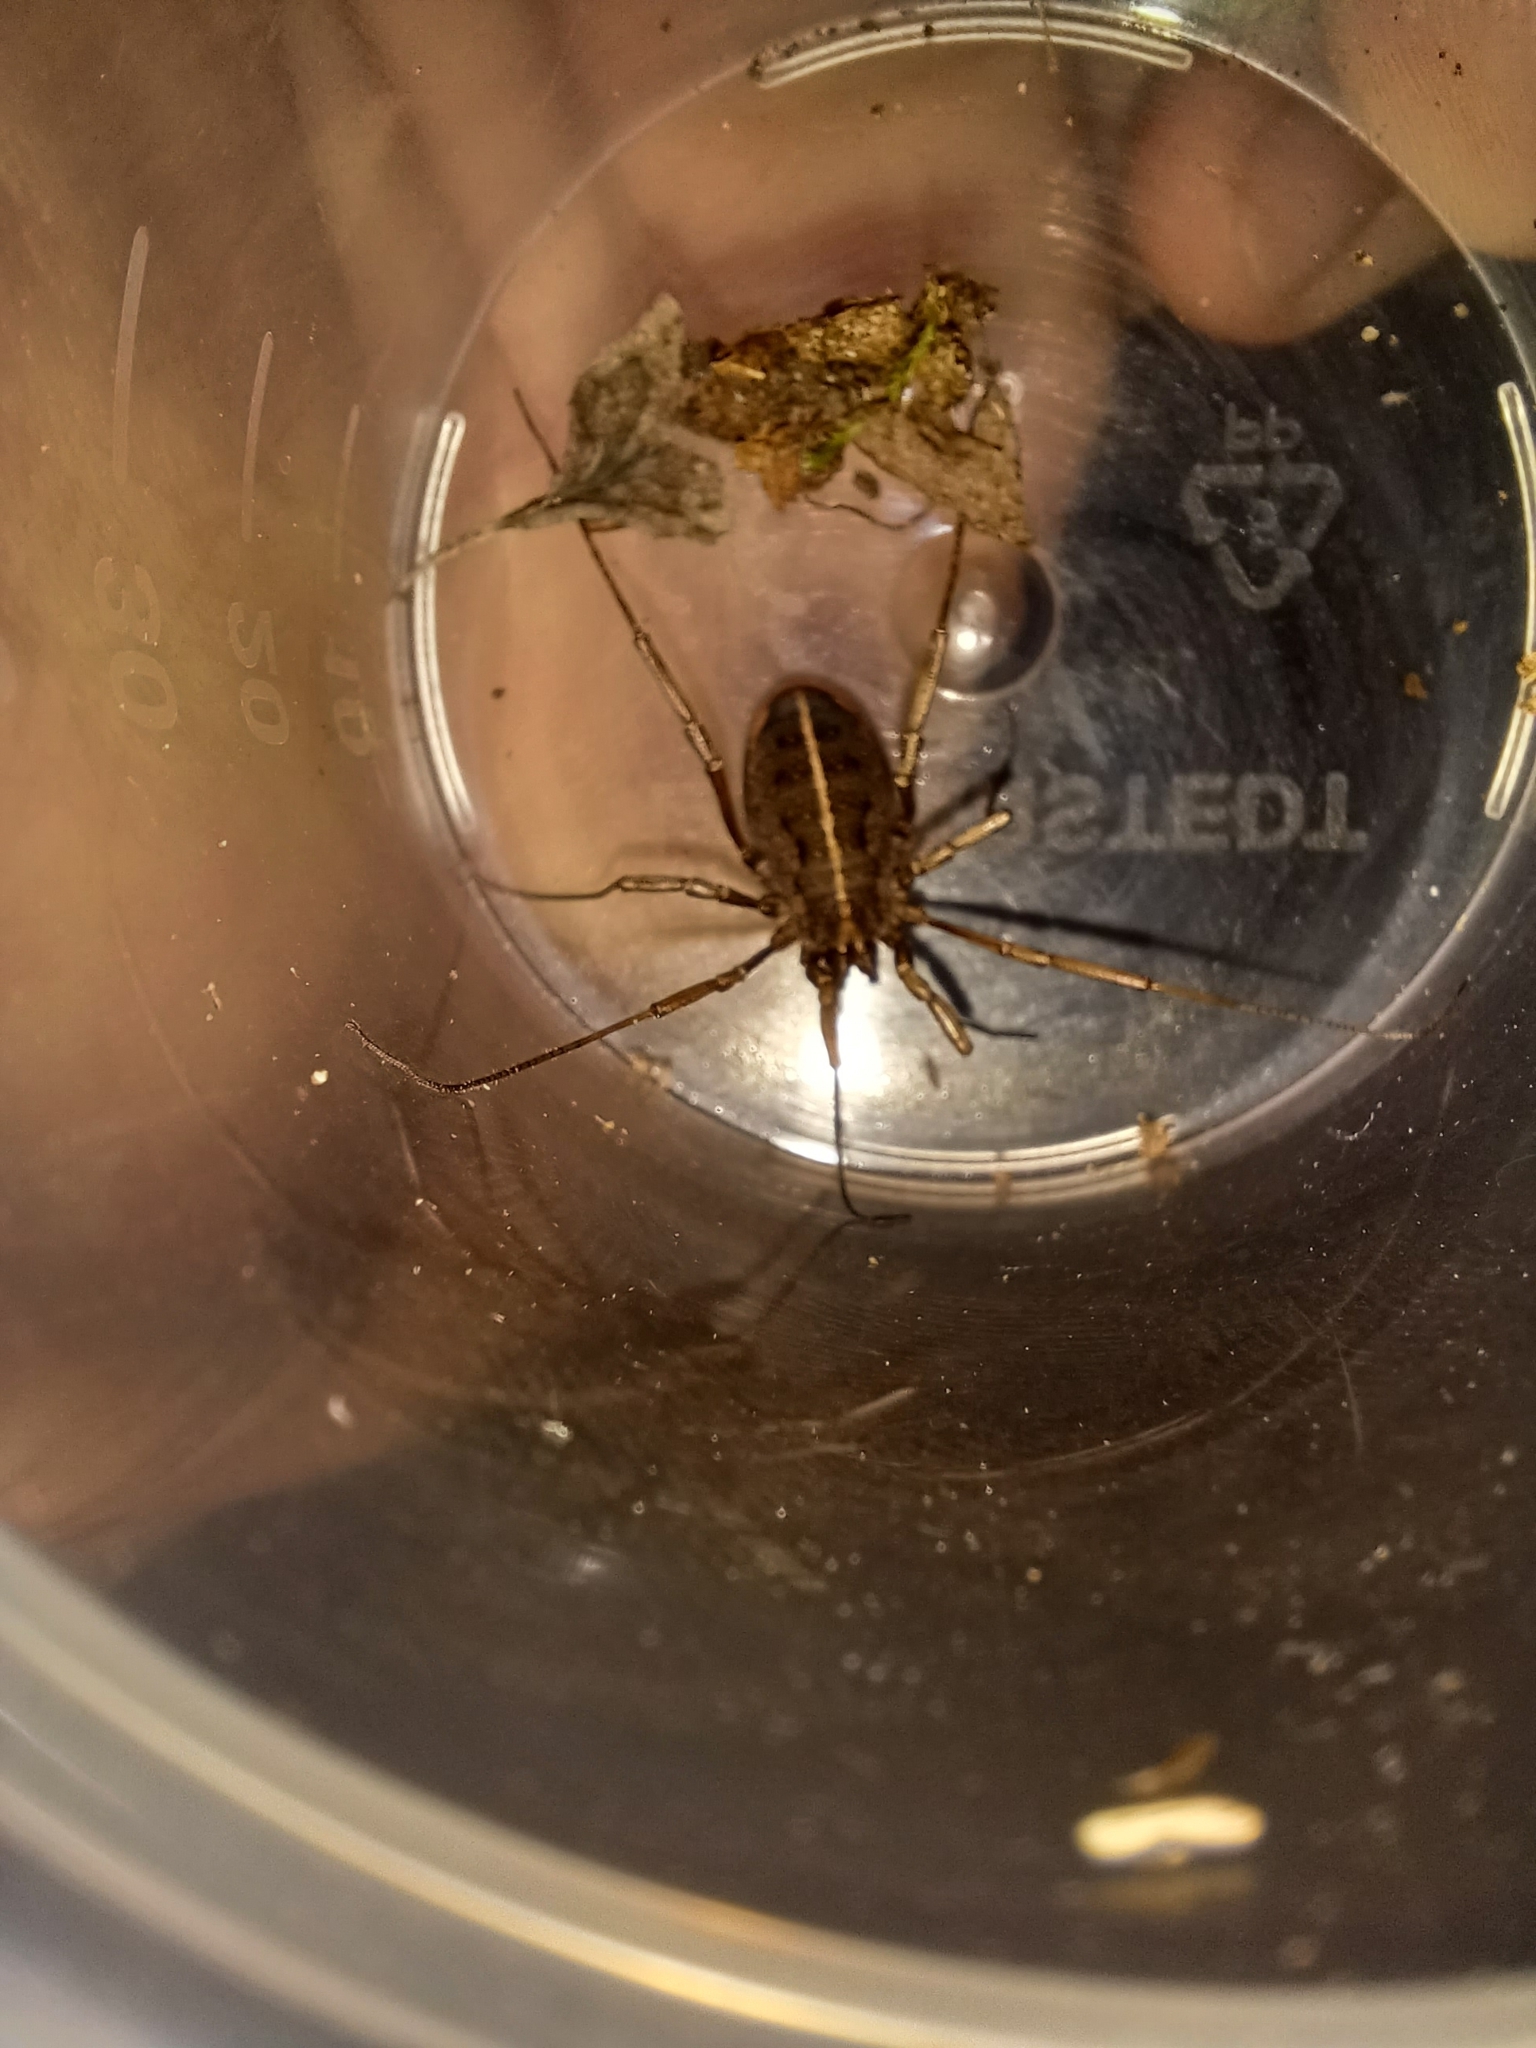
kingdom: Animalia
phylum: Arthropoda
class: Arachnida
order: Opiliones
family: Phalangiidae
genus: Zachaeus
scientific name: Zachaeus crista
